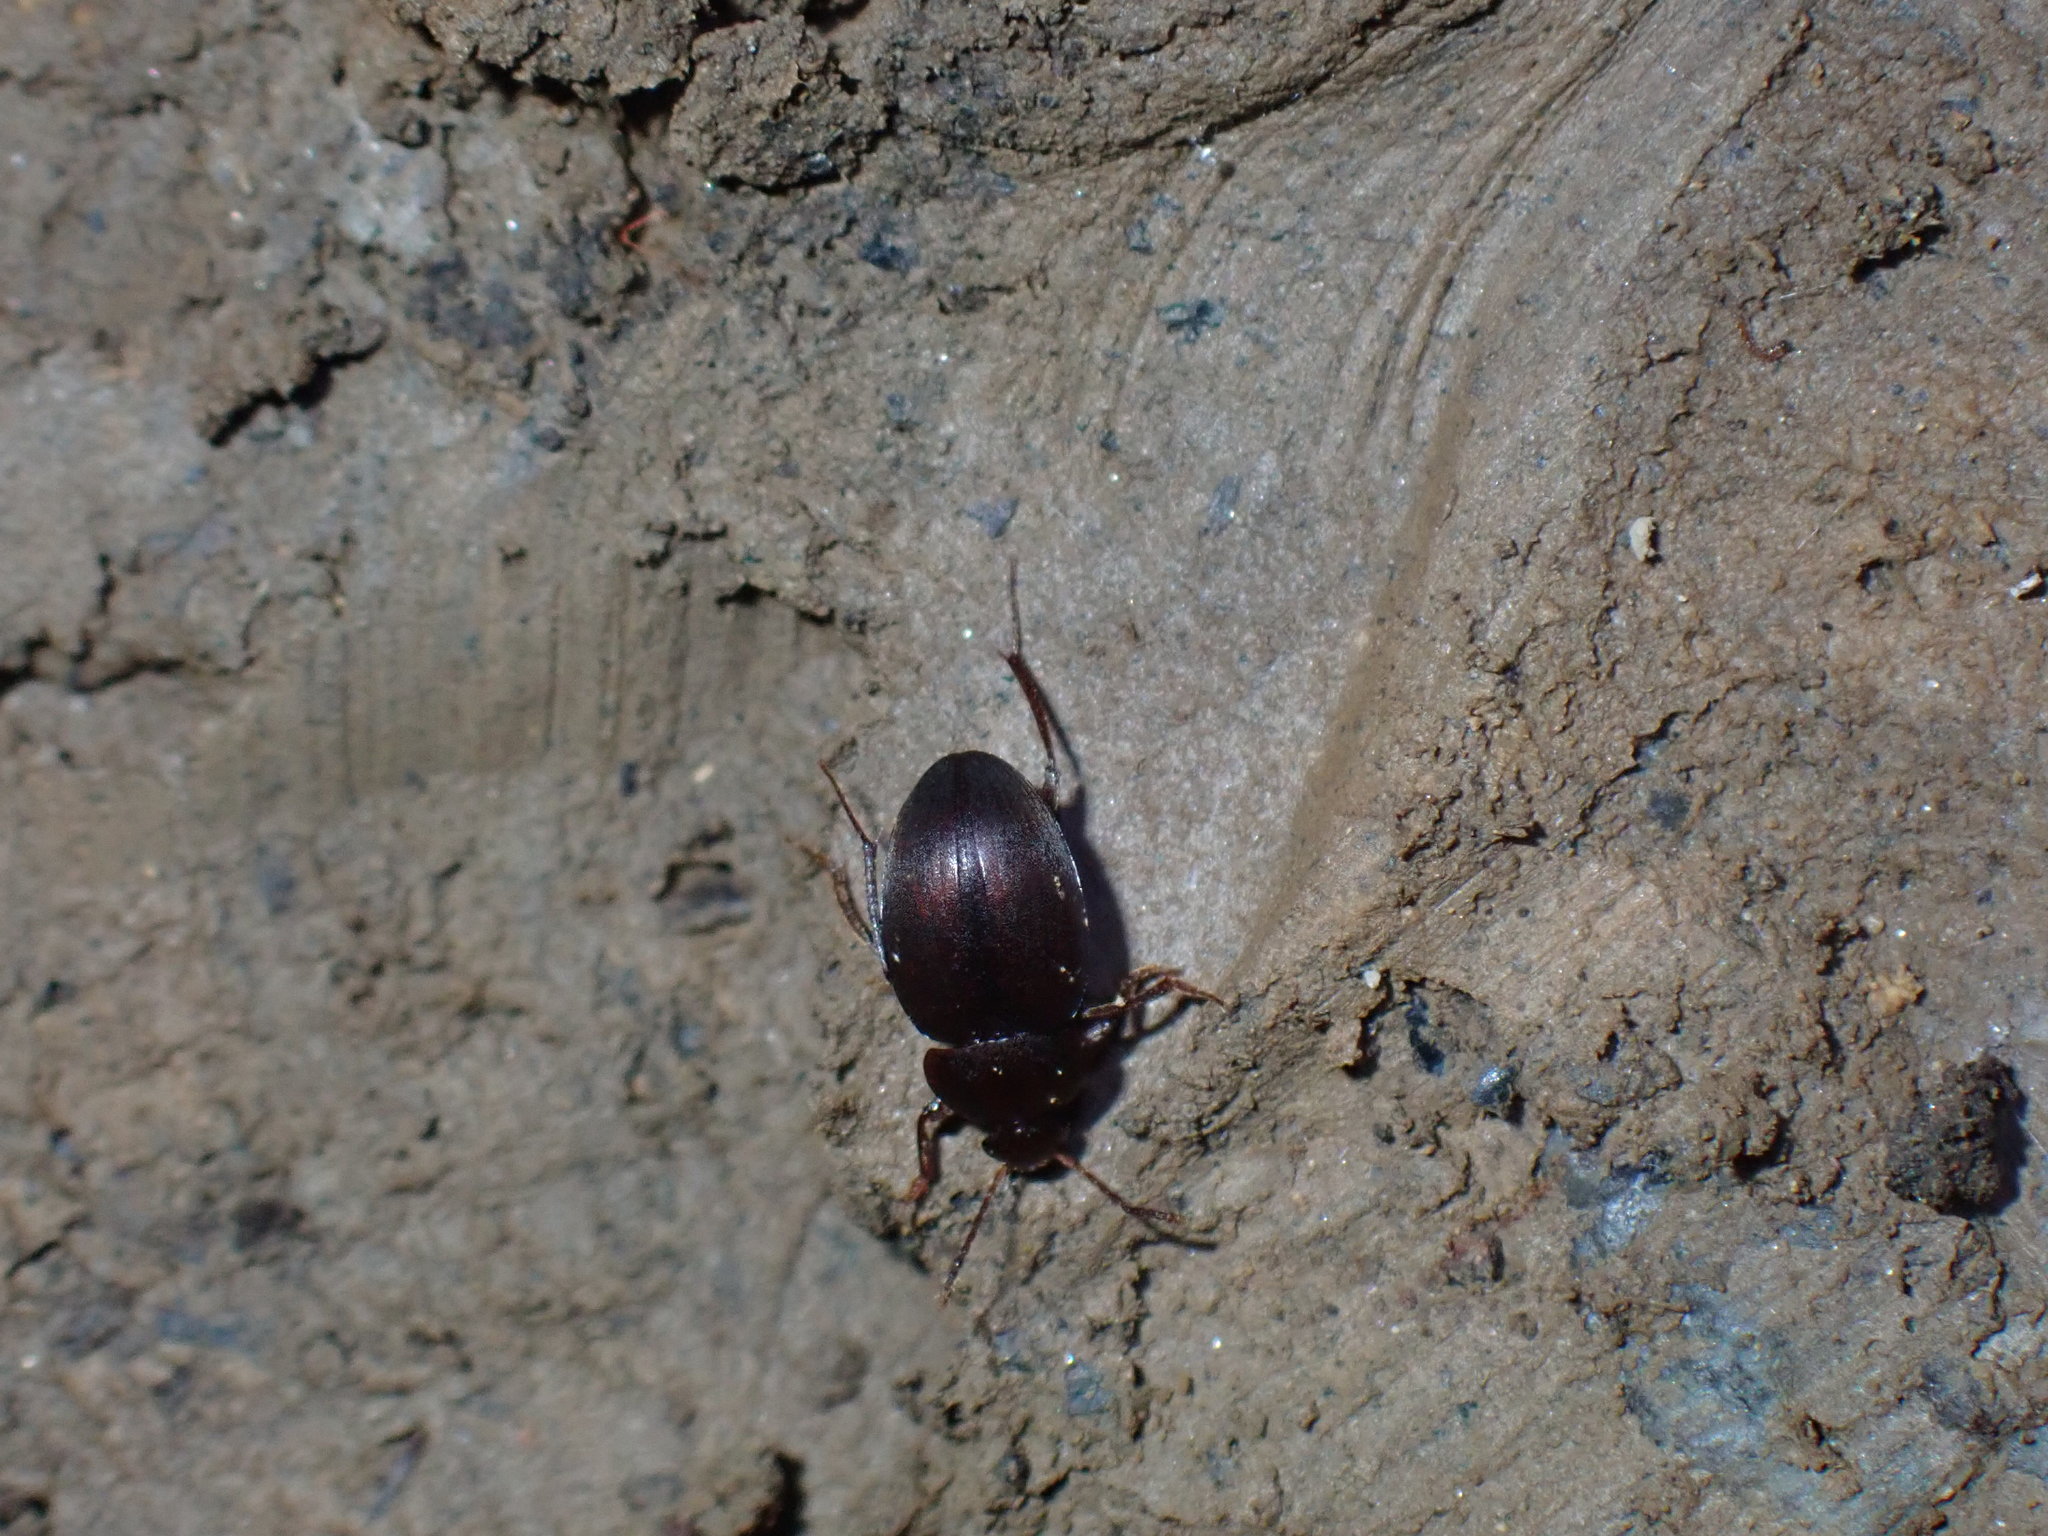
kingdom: Animalia
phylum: Arthropoda
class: Insecta
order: Coleoptera
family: Tenebrionidae
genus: Nalassus
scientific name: Nalassus laevioctostriatus
